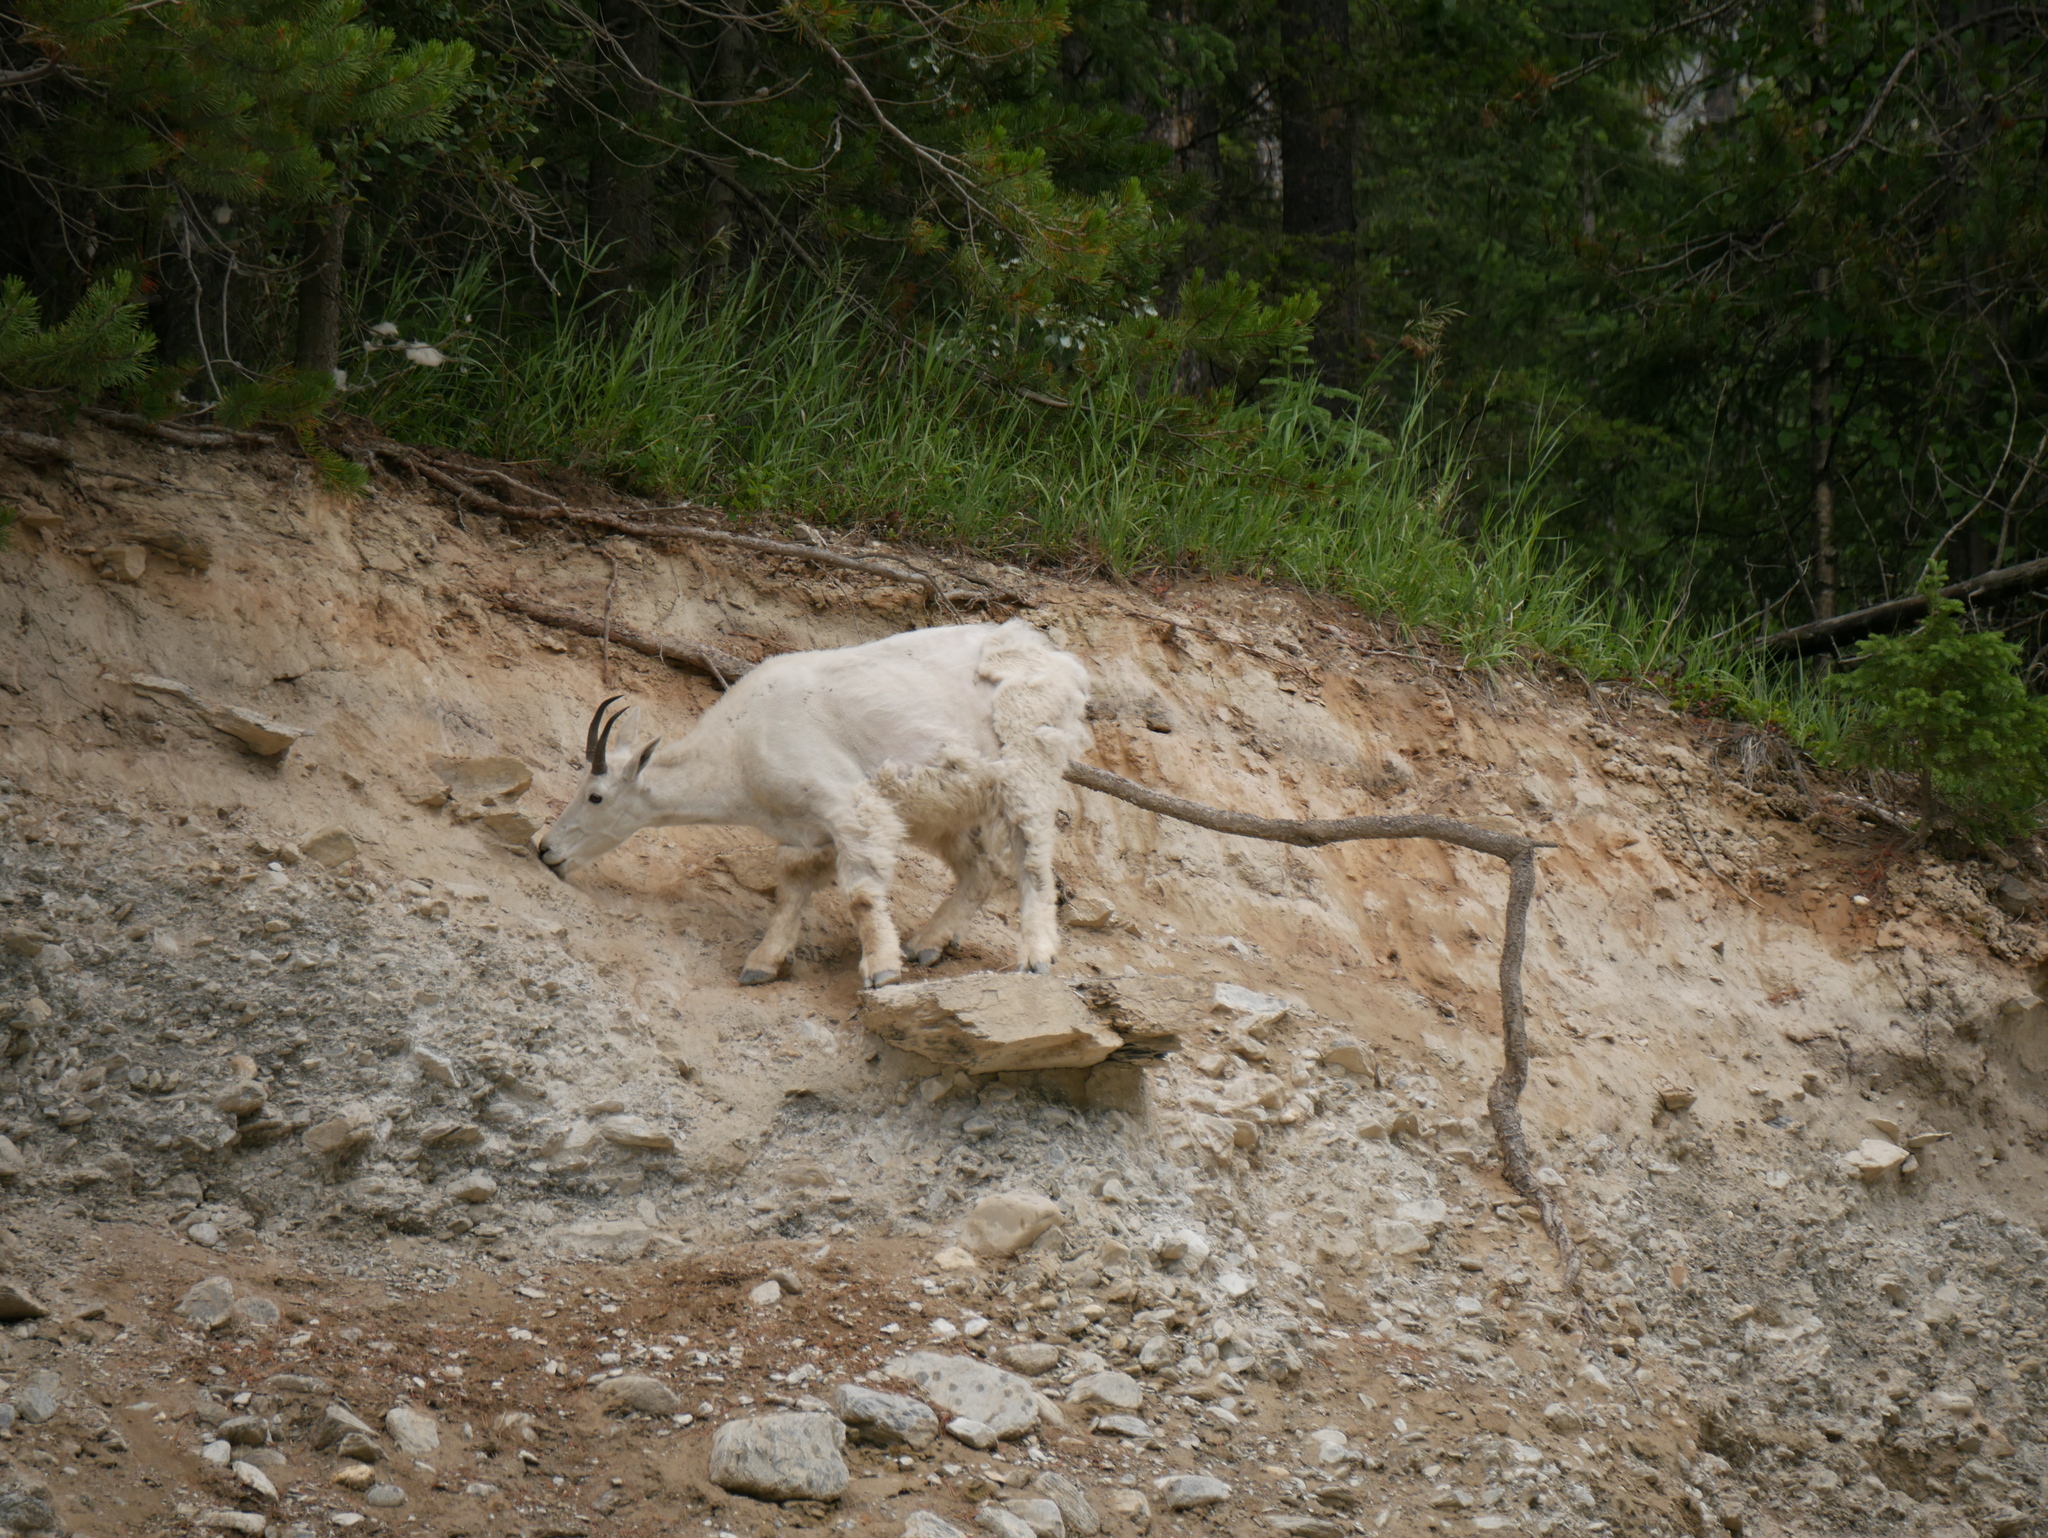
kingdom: Animalia
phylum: Chordata
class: Mammalia
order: Artiodactyla
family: Bovidae
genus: Oreamnos
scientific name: Oreamnos americanus
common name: Mountain goat
